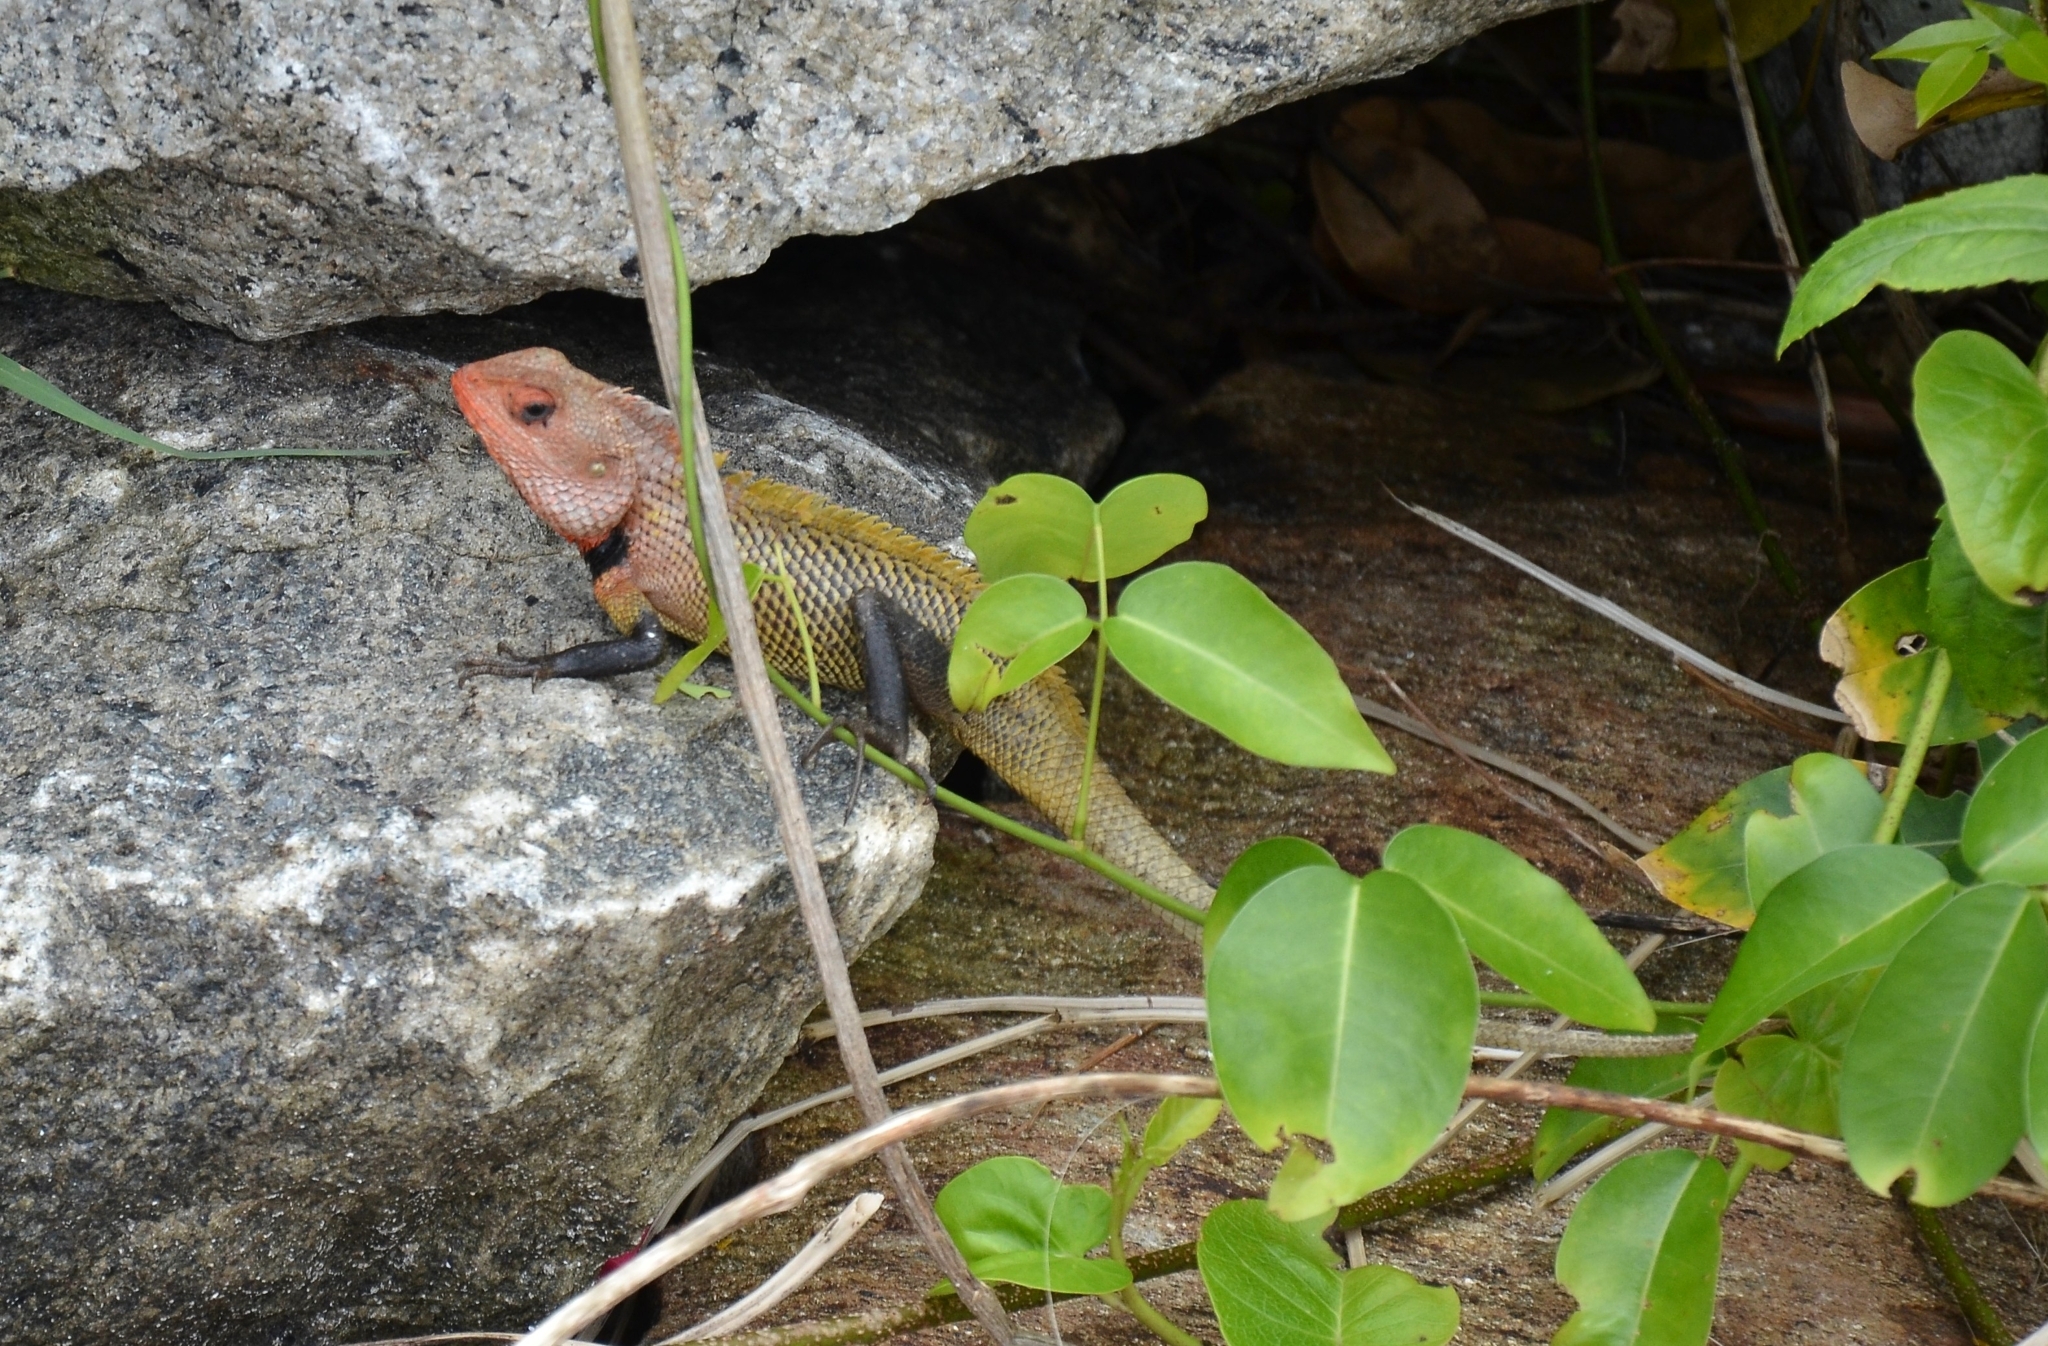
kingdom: Animalia
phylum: Chordata
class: Squamata
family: Agamidae
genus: Calotes
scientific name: Calotes versicolor
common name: Oriental garden lizard
